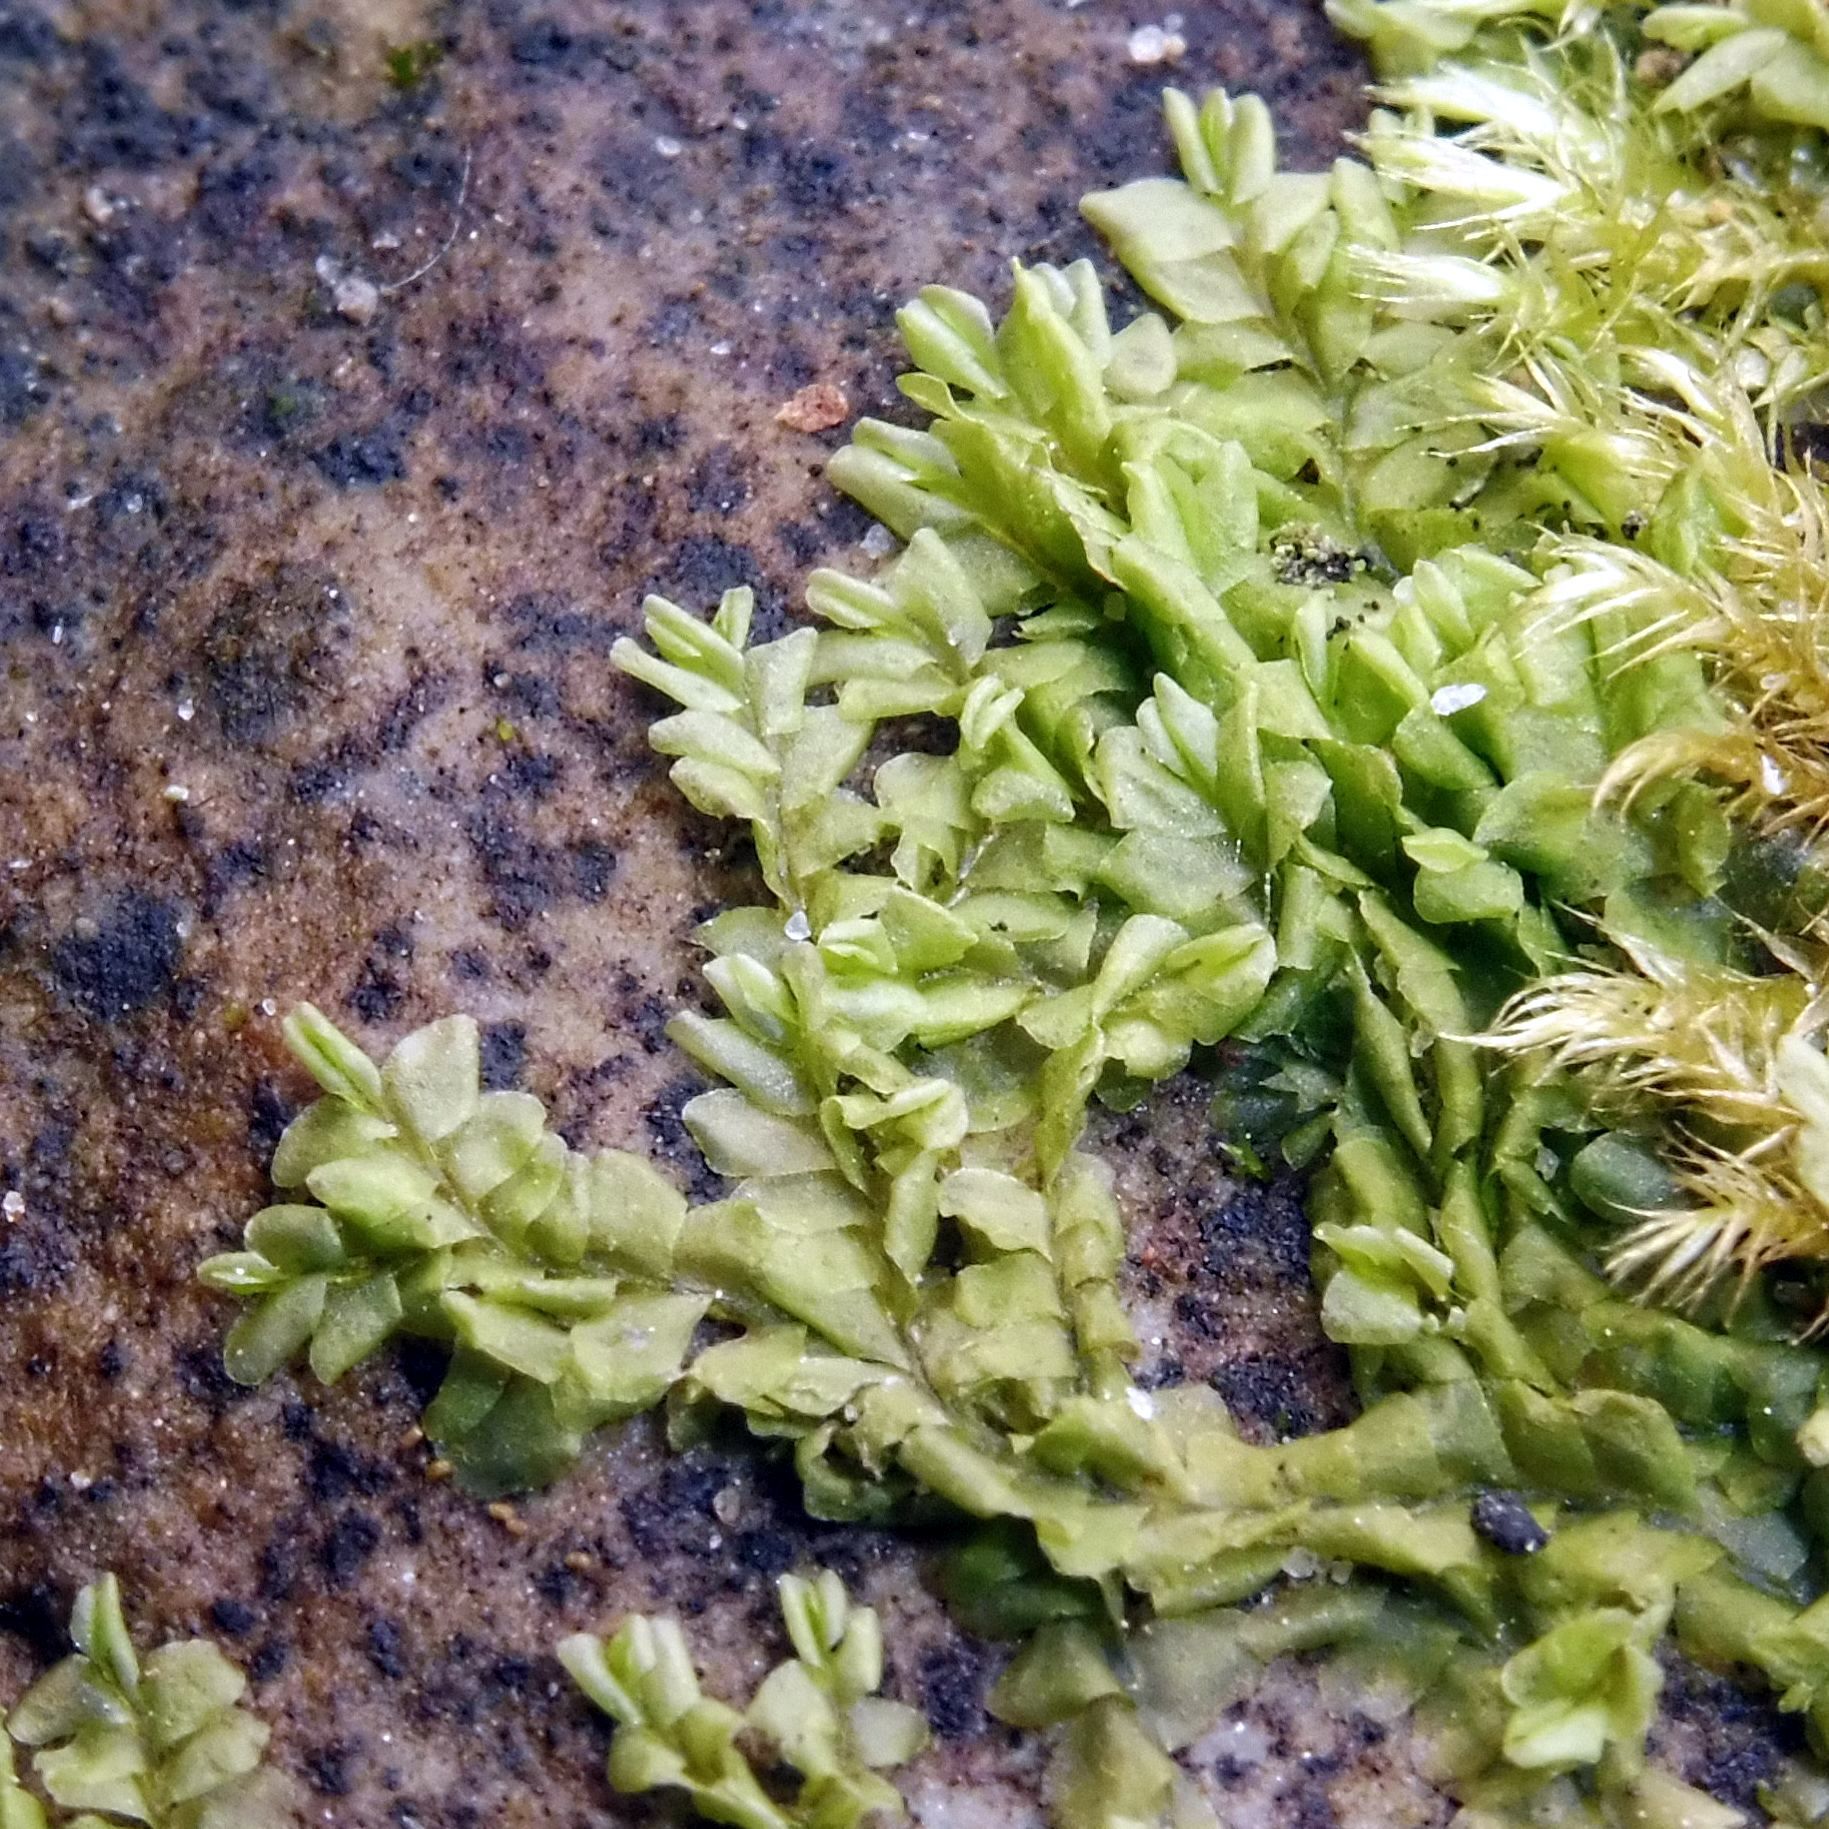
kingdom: Plantae
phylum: Marchantiophyta
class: Jungermanniopsida
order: Jungermanniales
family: Lophocoleaceae
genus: Chiloscyphus
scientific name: Chiloscyphus polyanthos
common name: Square-leaved crestwort
